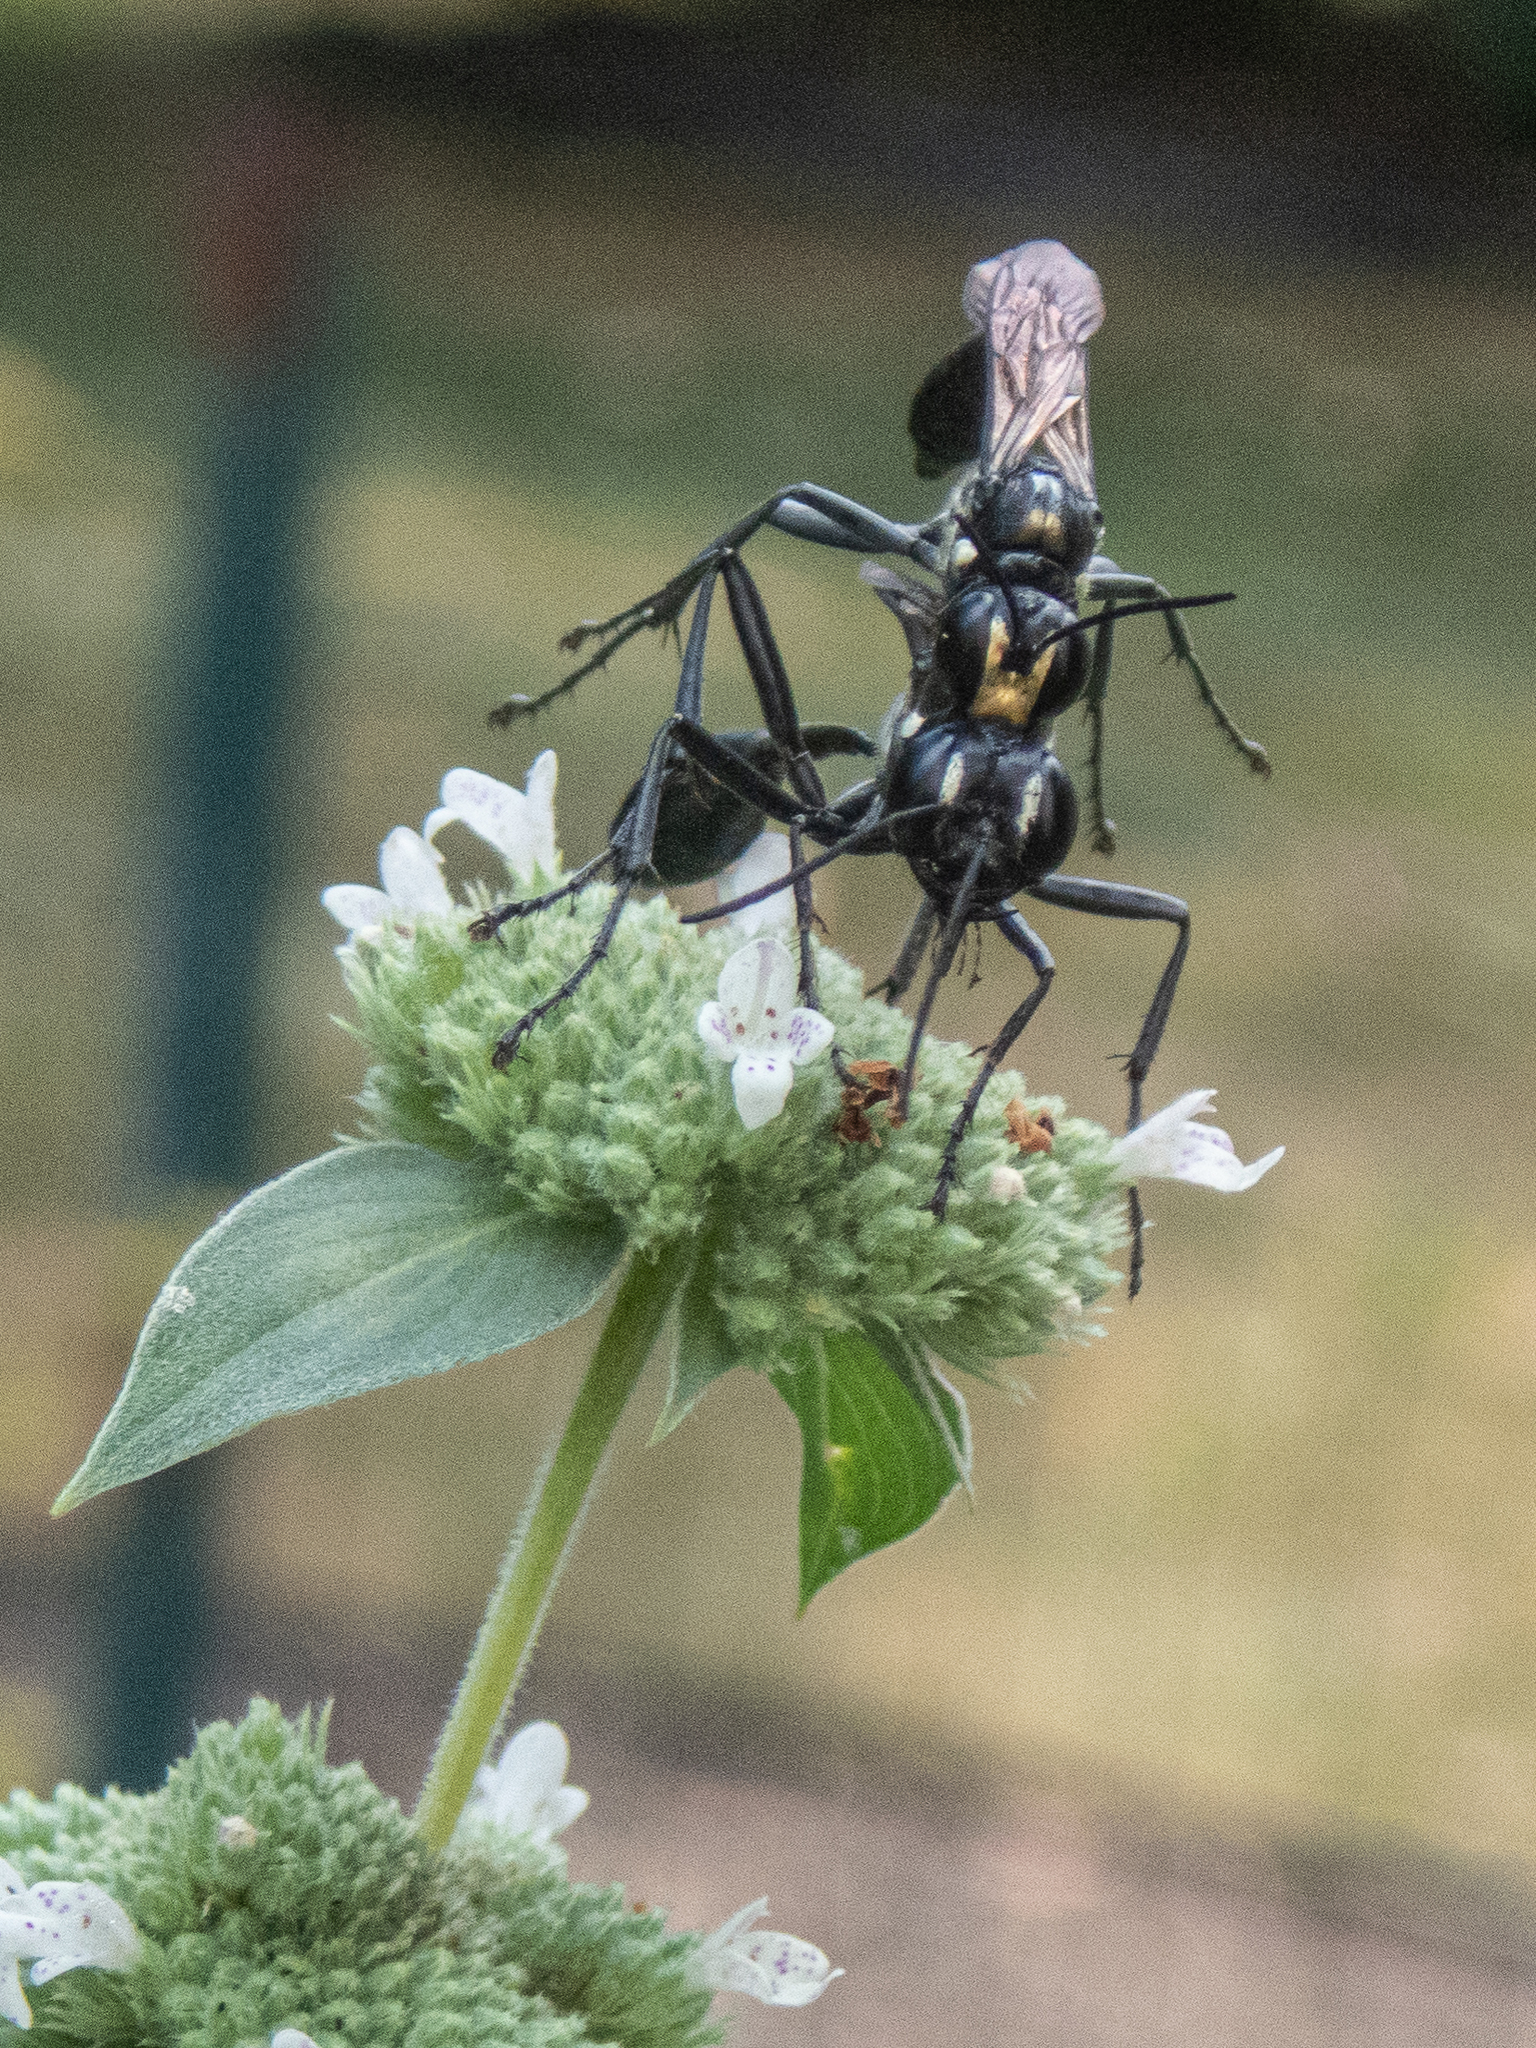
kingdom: Animalia
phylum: Arthropoda
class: Insecta
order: Hymenoptera
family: Sphecidae
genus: Eremnophila
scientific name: Eremnophila aureonotata
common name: Gold-marked thread-waisted wasp
